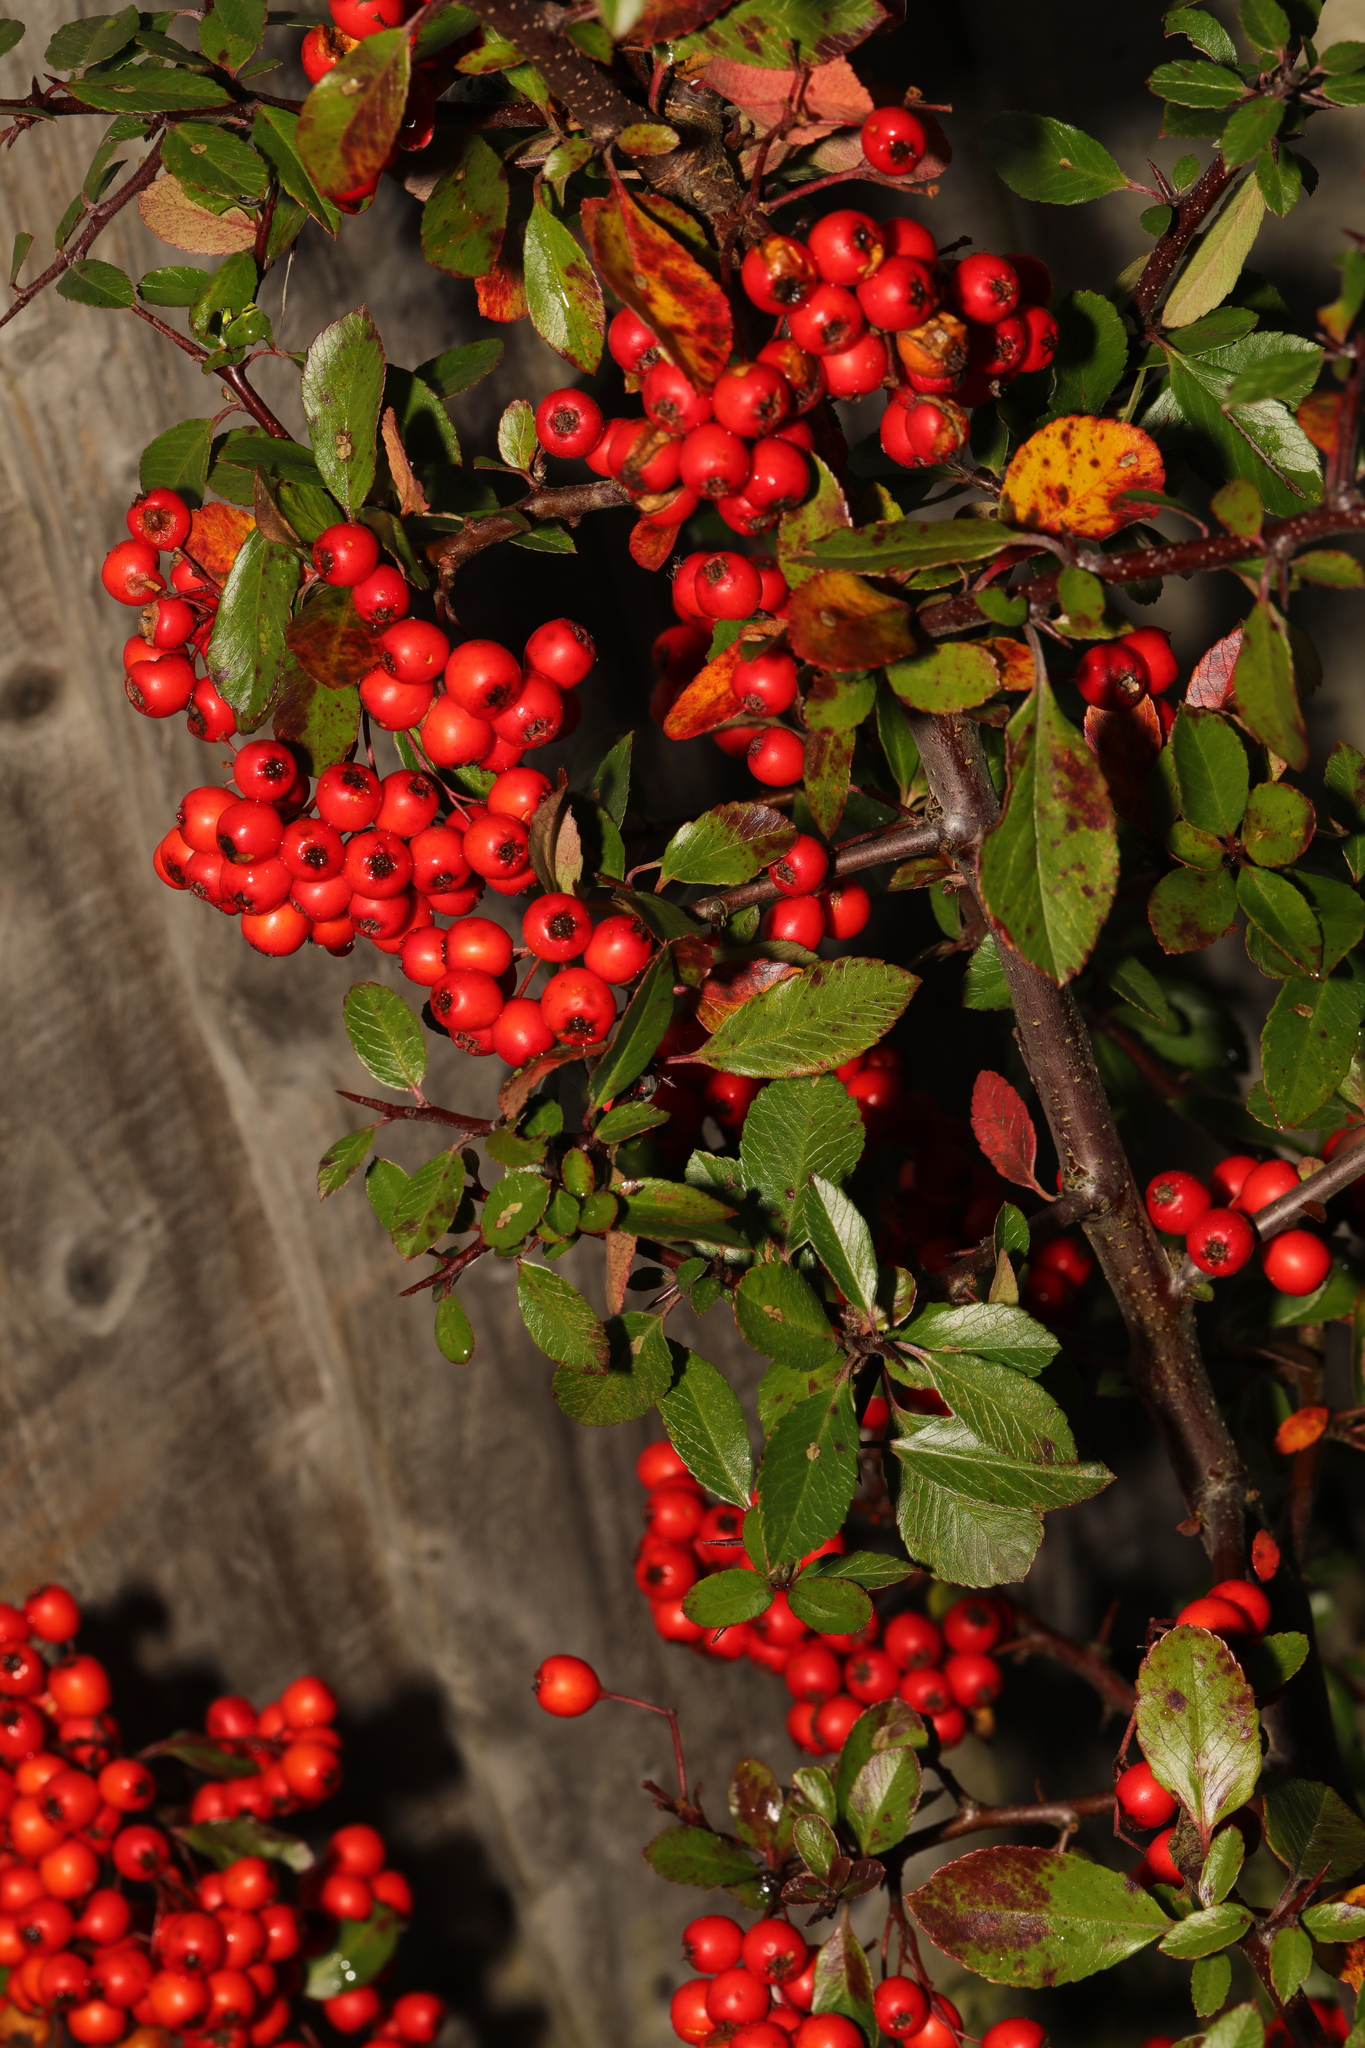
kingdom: Plantae
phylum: Tracheophyta
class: Magnoliopsida
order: Rosales
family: Rosaceae
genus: Pyracantha
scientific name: Pyracantha coccinea
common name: Firethorn
